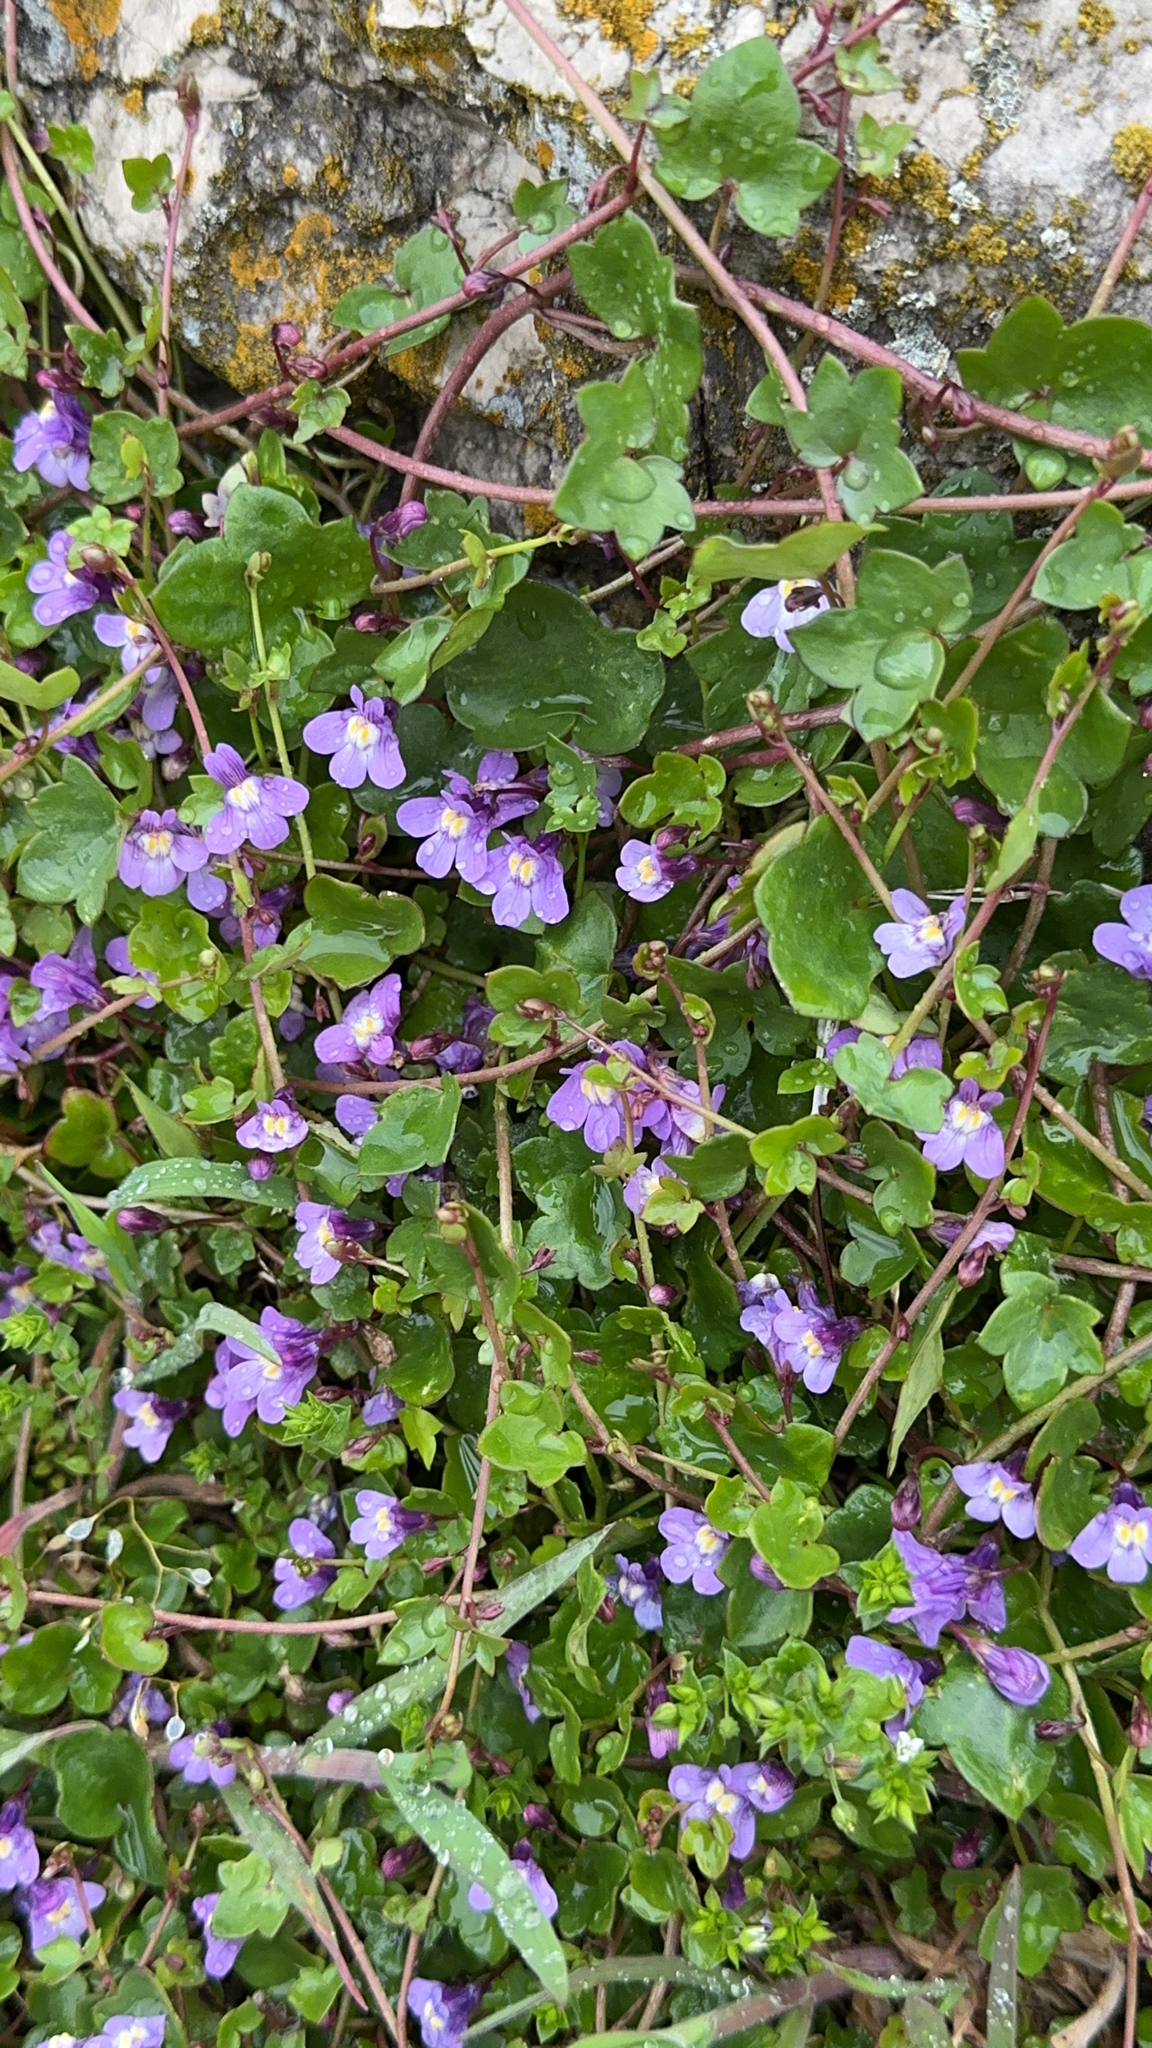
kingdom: Plantae
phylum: Tracheophyta
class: Magnoliopsida
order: Lamiales
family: Plantaginaceae
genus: Cymbalaria
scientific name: Cymbalaria muralis
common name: Ivy-leaved toadflax
